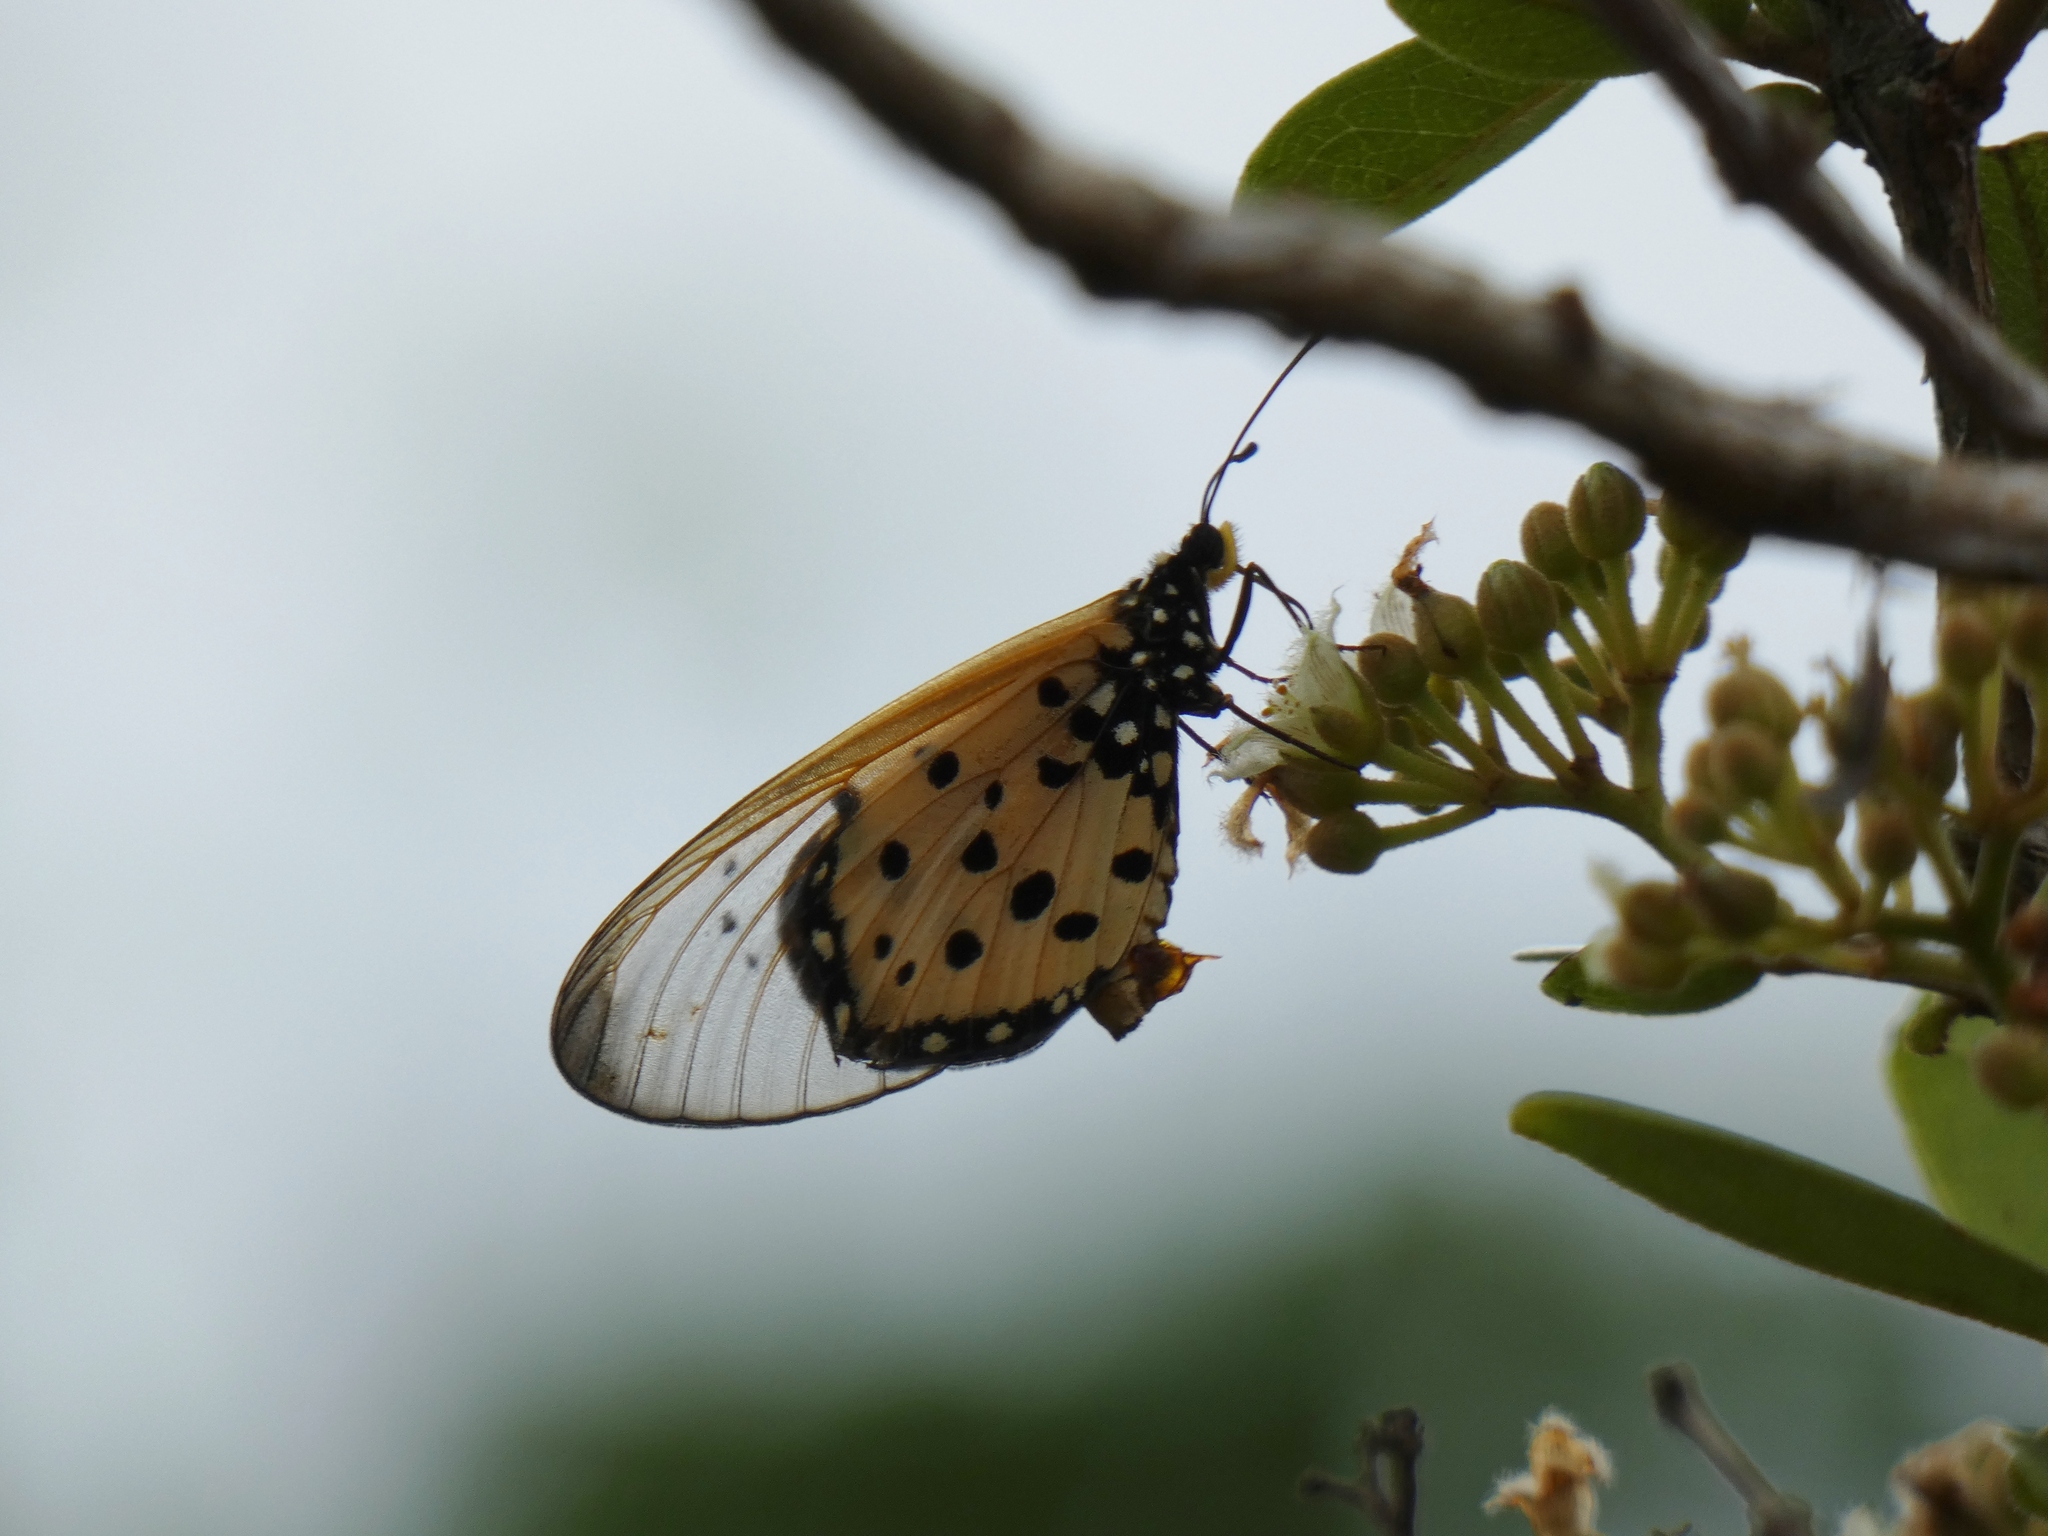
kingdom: Animalia
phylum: Arthropoda
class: Insecta
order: Lepidoptera
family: Nymphalidae
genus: Acraea
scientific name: Acraea neobule
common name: Dancing acraea
